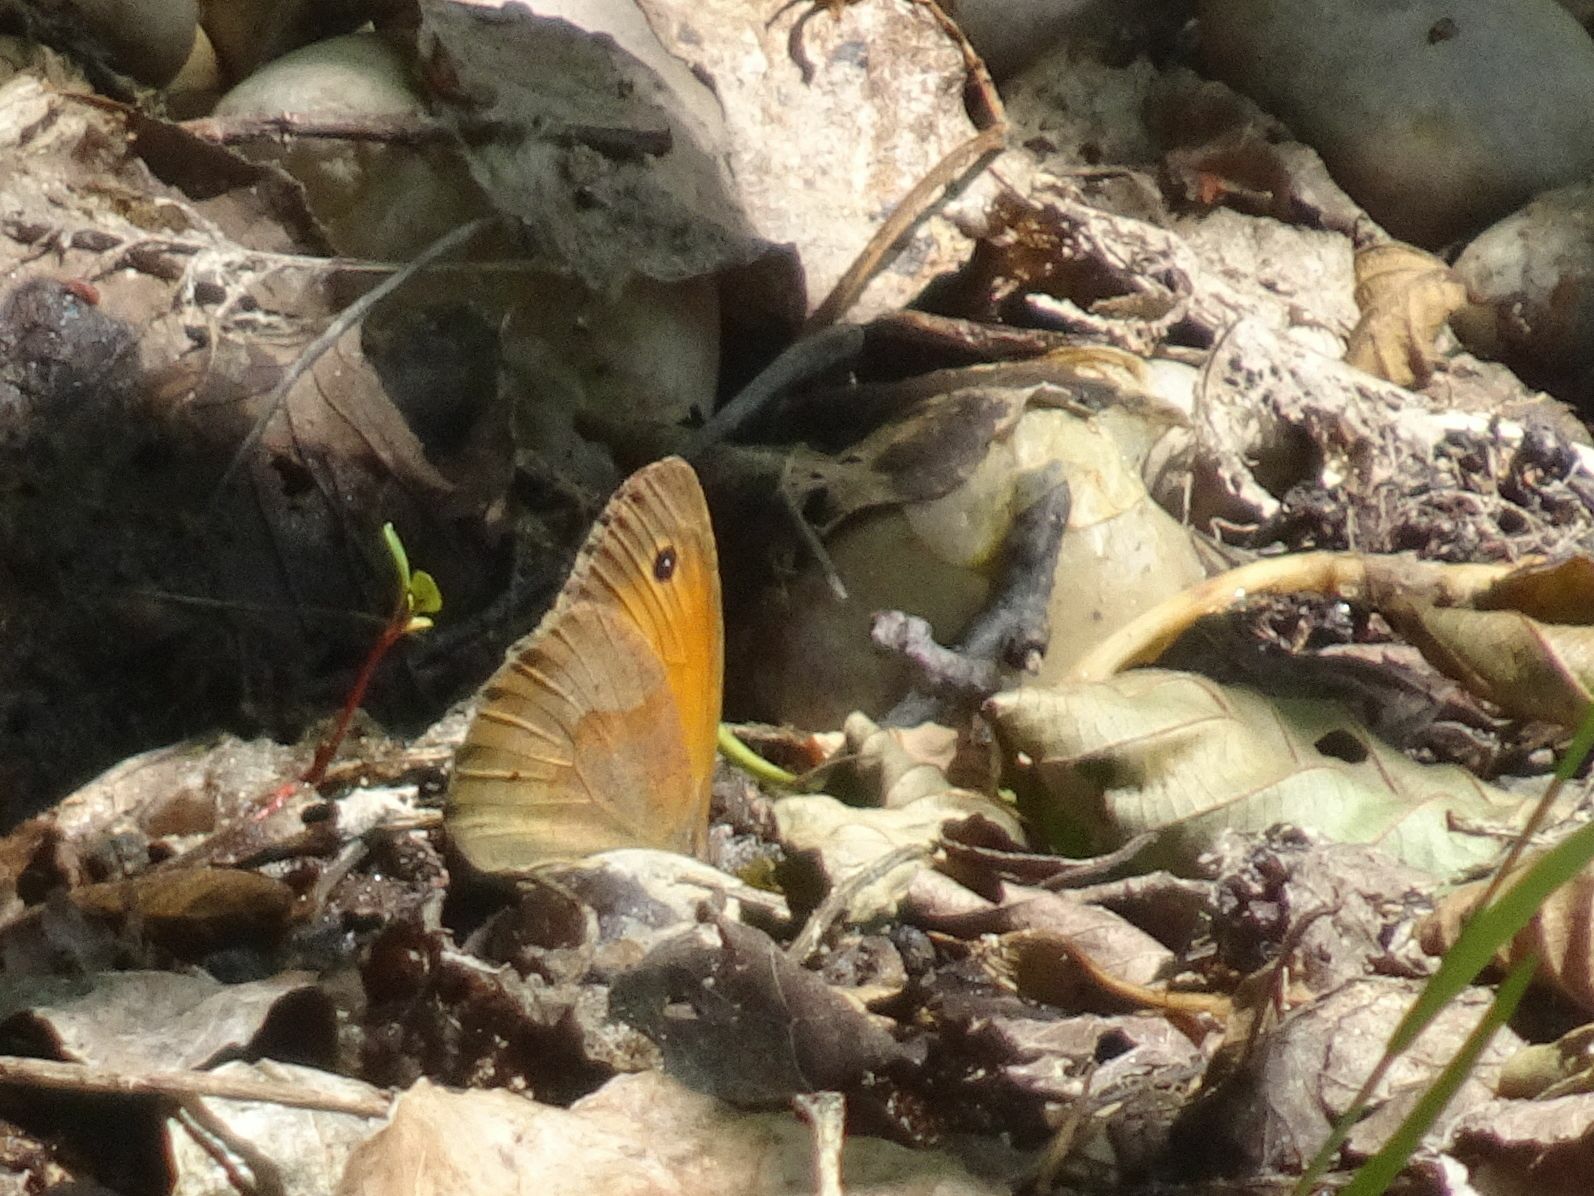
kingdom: Animalia
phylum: Arthropoda
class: Insecta
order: Lepidoptera
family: Nymphalidae
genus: Maniola
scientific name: Maniola jurtina
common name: Meadow brown
